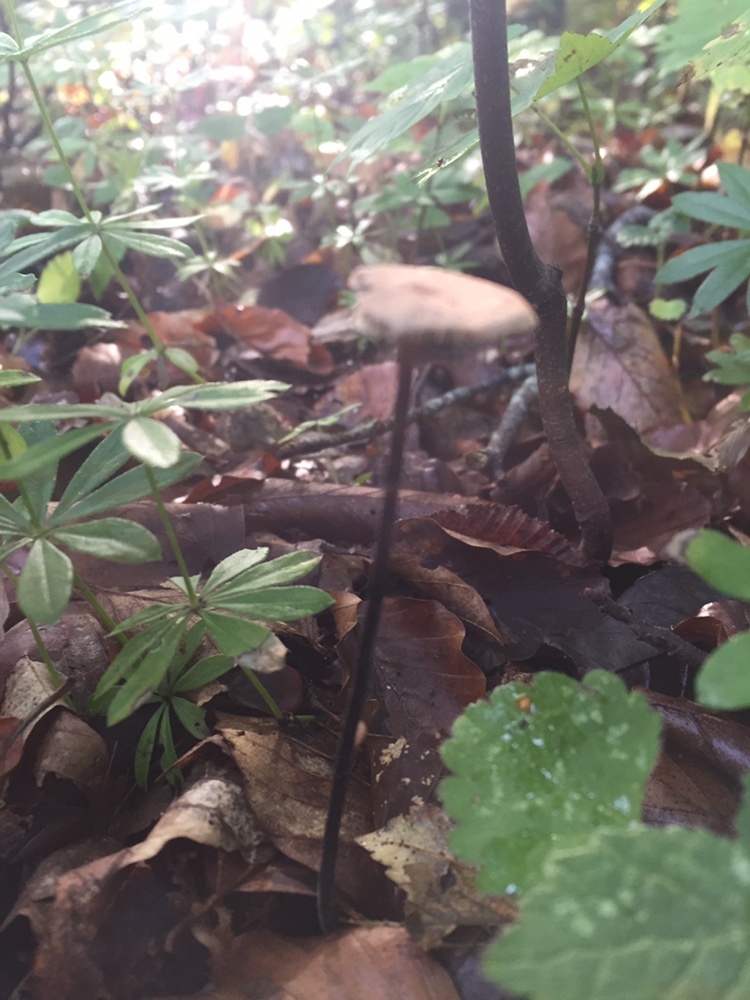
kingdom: Fungi
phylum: Basidiomycota
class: Agaricomycetes
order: Agaricales
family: Omphalotaceae
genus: Mycetinis
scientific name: Mycetinis alliaceus
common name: Garlic parachute
